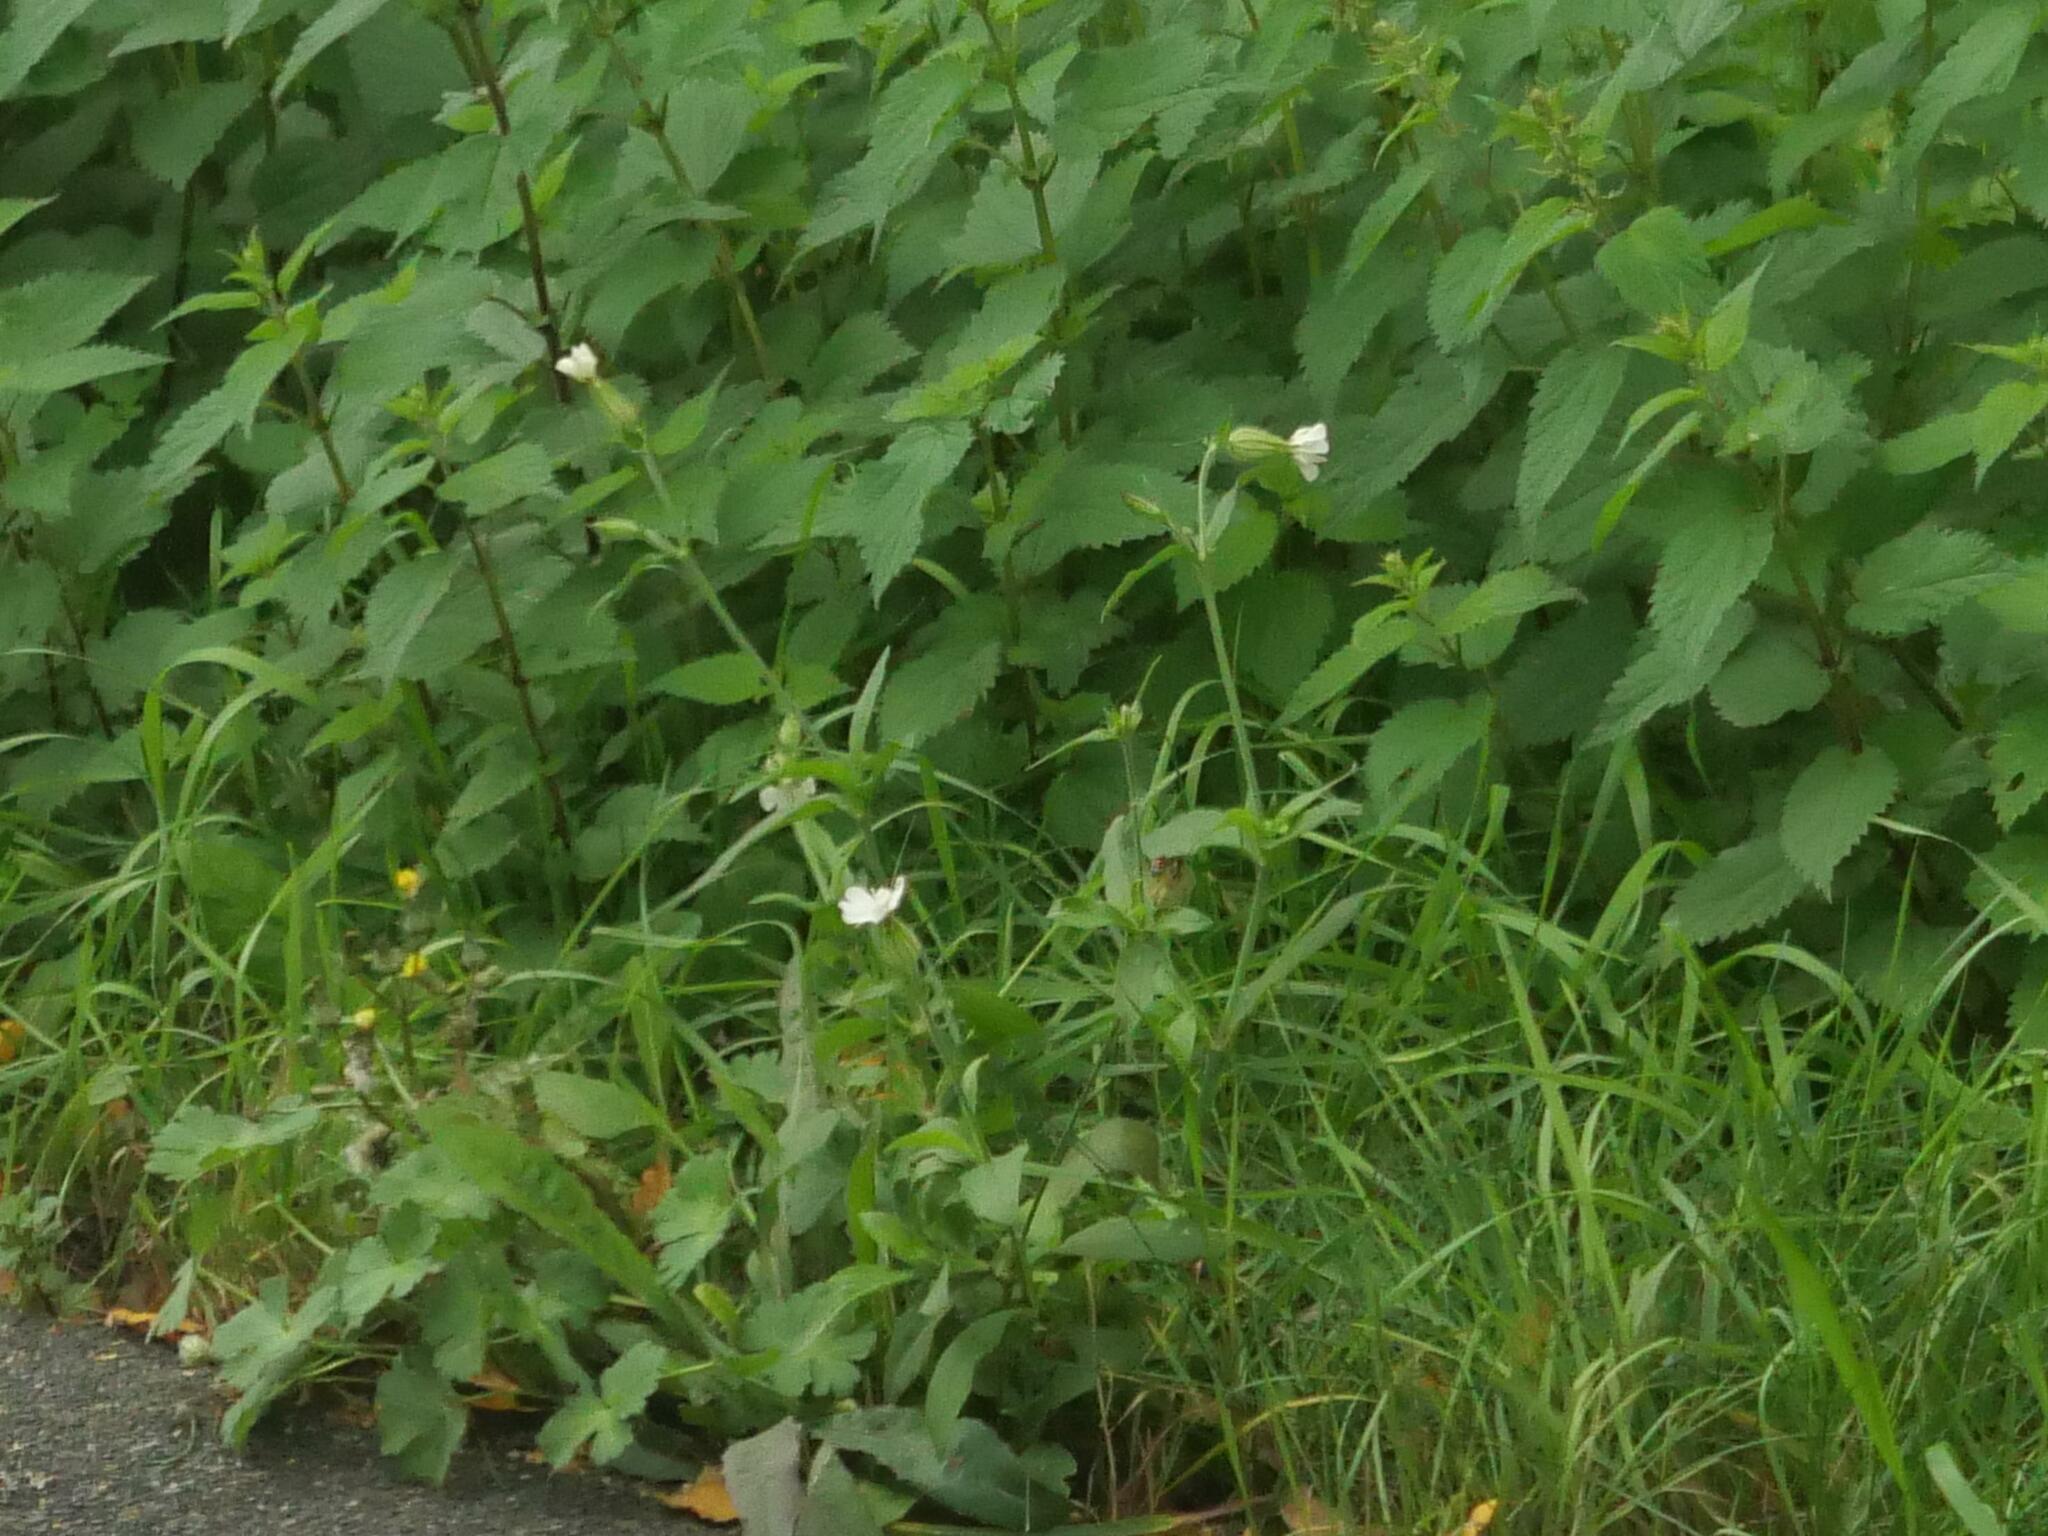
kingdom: Plantae
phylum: Tracheophyta
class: Magnoliopsida
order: Caryophyllales
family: Caryophyllaceae
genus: Silene
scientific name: Silene latifolia
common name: White campion
